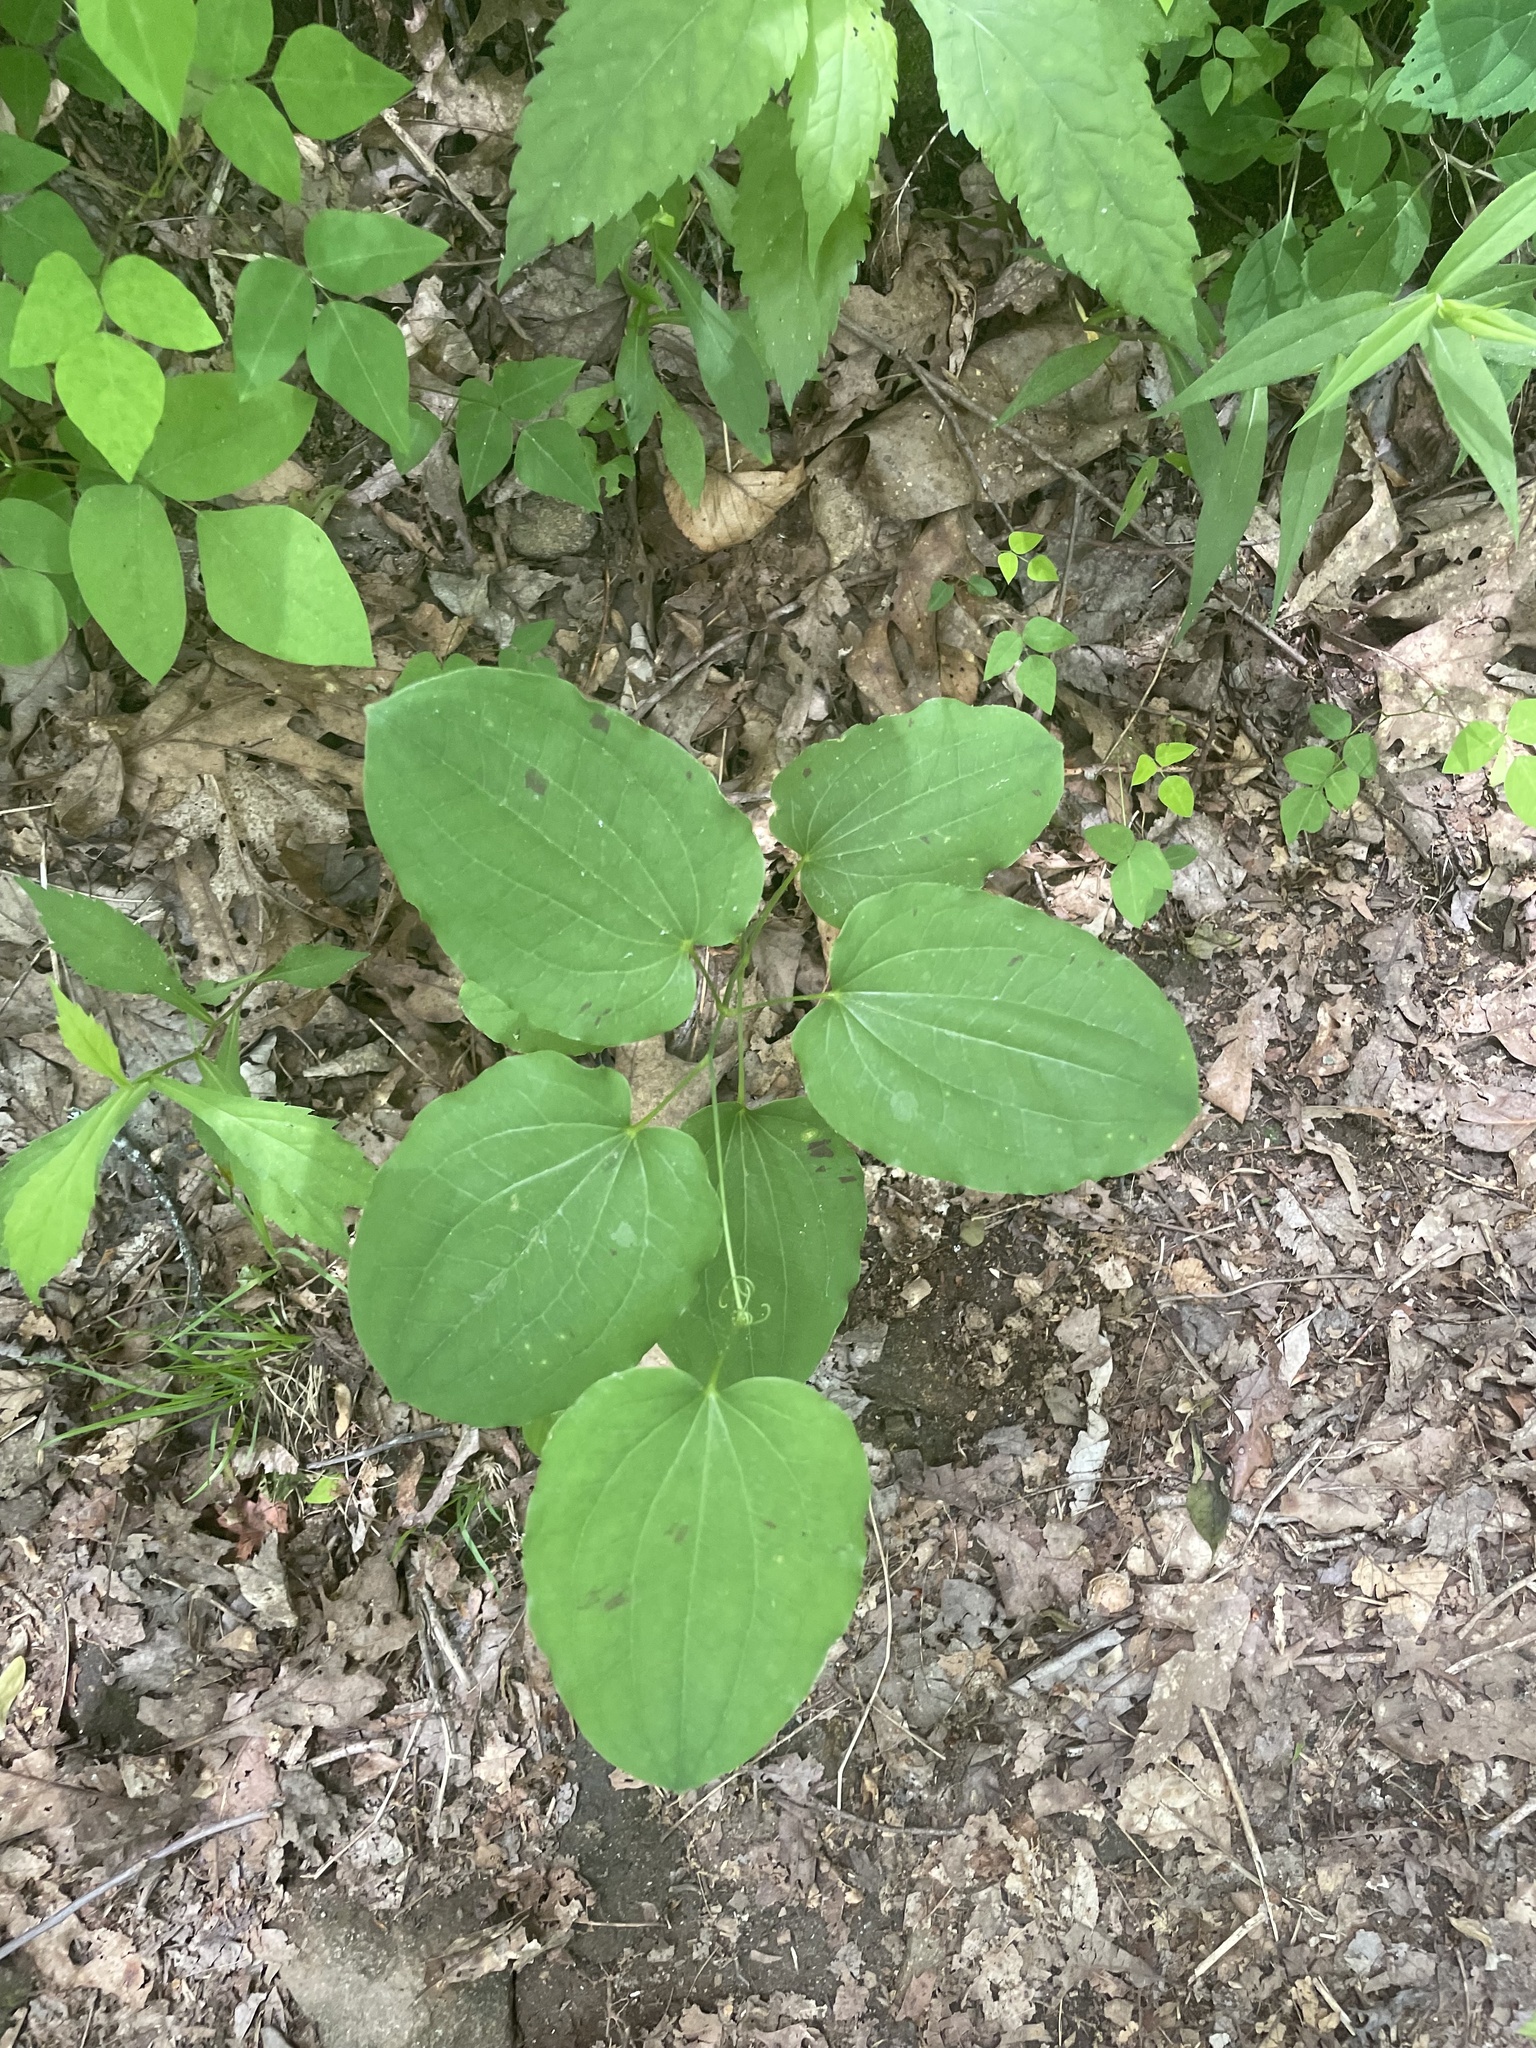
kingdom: Plantae
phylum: Tracheophyta
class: Liliopsida
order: Dioscoreales
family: Dioscoreaceae
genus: Dioscorea
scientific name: Dioscorea villosa
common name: Wild yam
